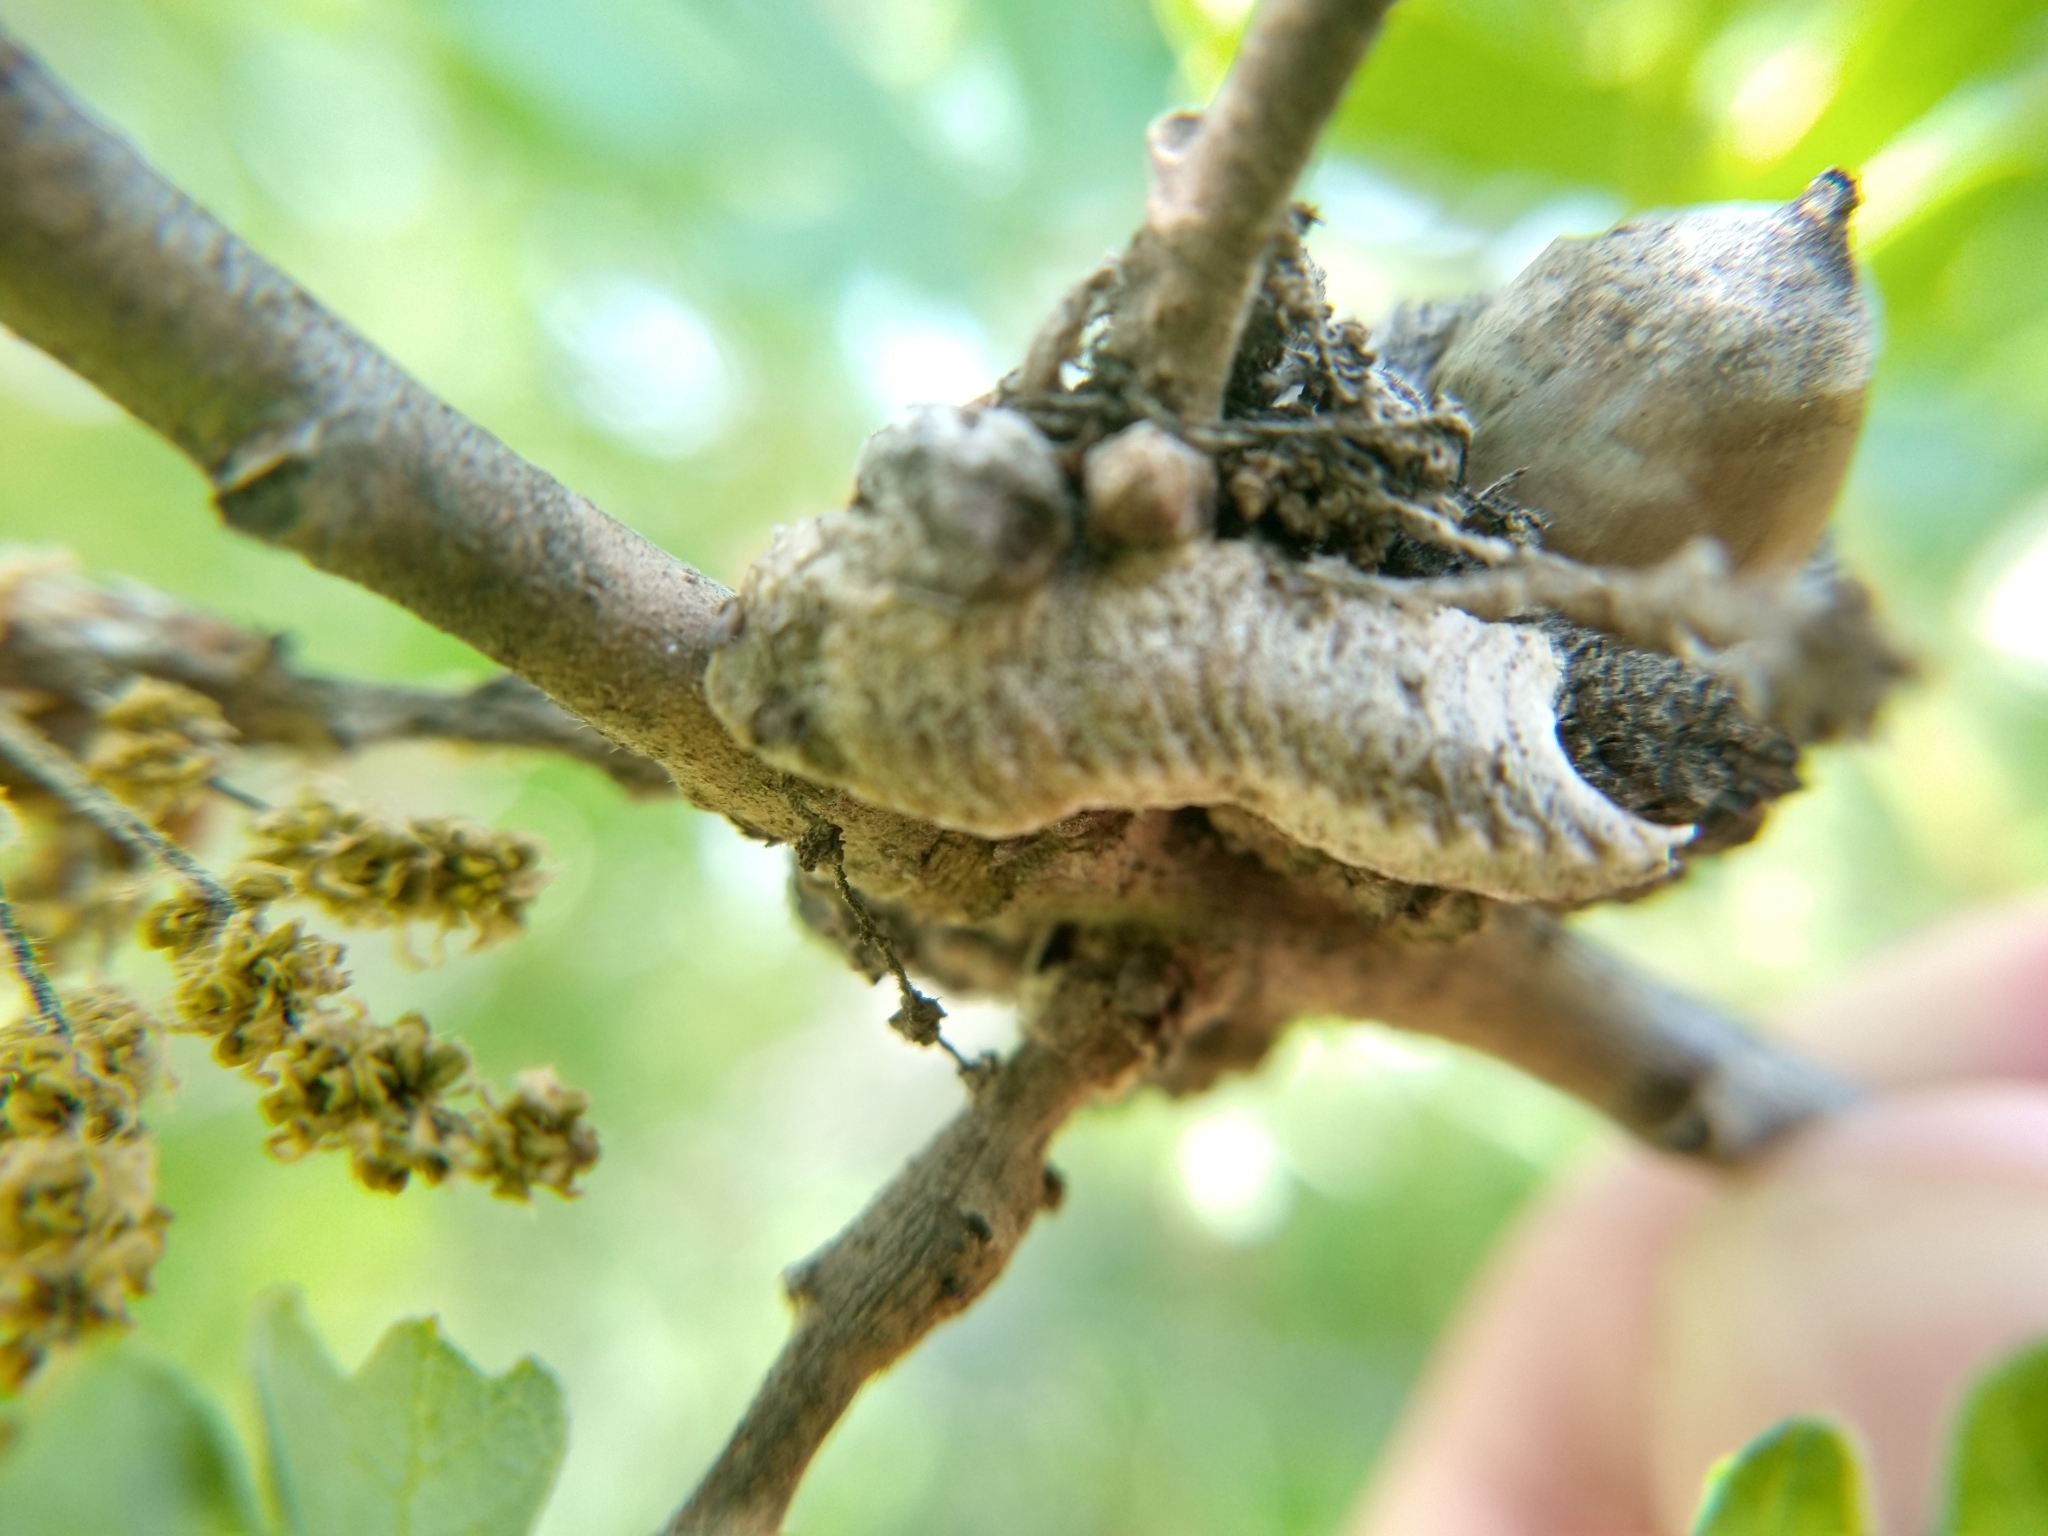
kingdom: Animalia
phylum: Arthropoda
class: Insecta
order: Mantodea
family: Eremiaphilidae
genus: Iris
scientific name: Iris oratoria
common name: Mediterranean mantis
